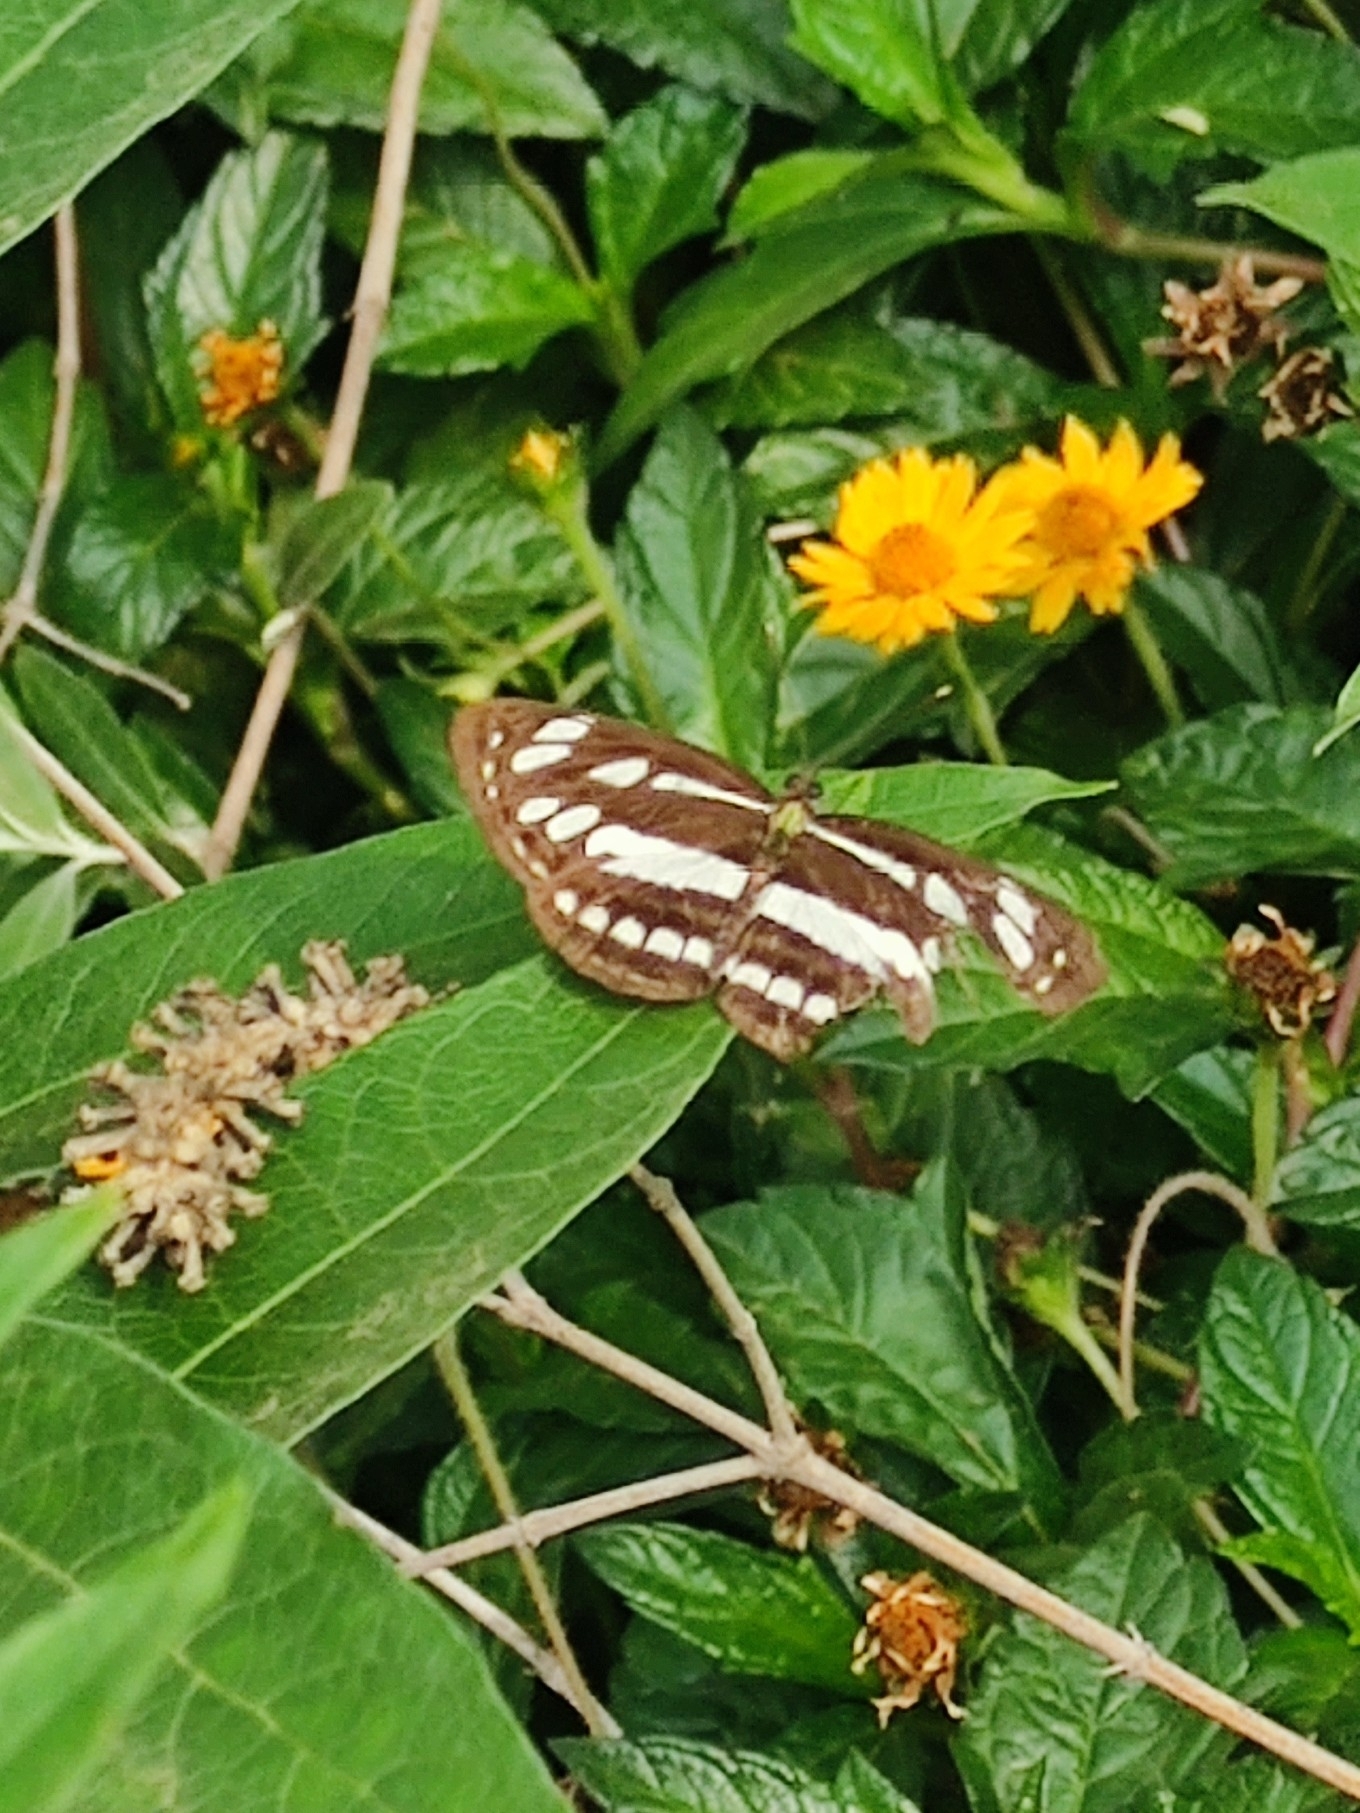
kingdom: Animalia
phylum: Arthropoda
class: Insecta
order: Lepidoptera
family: Nymphalidae
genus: Neptis
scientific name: Neptis hylas
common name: Common sailer
